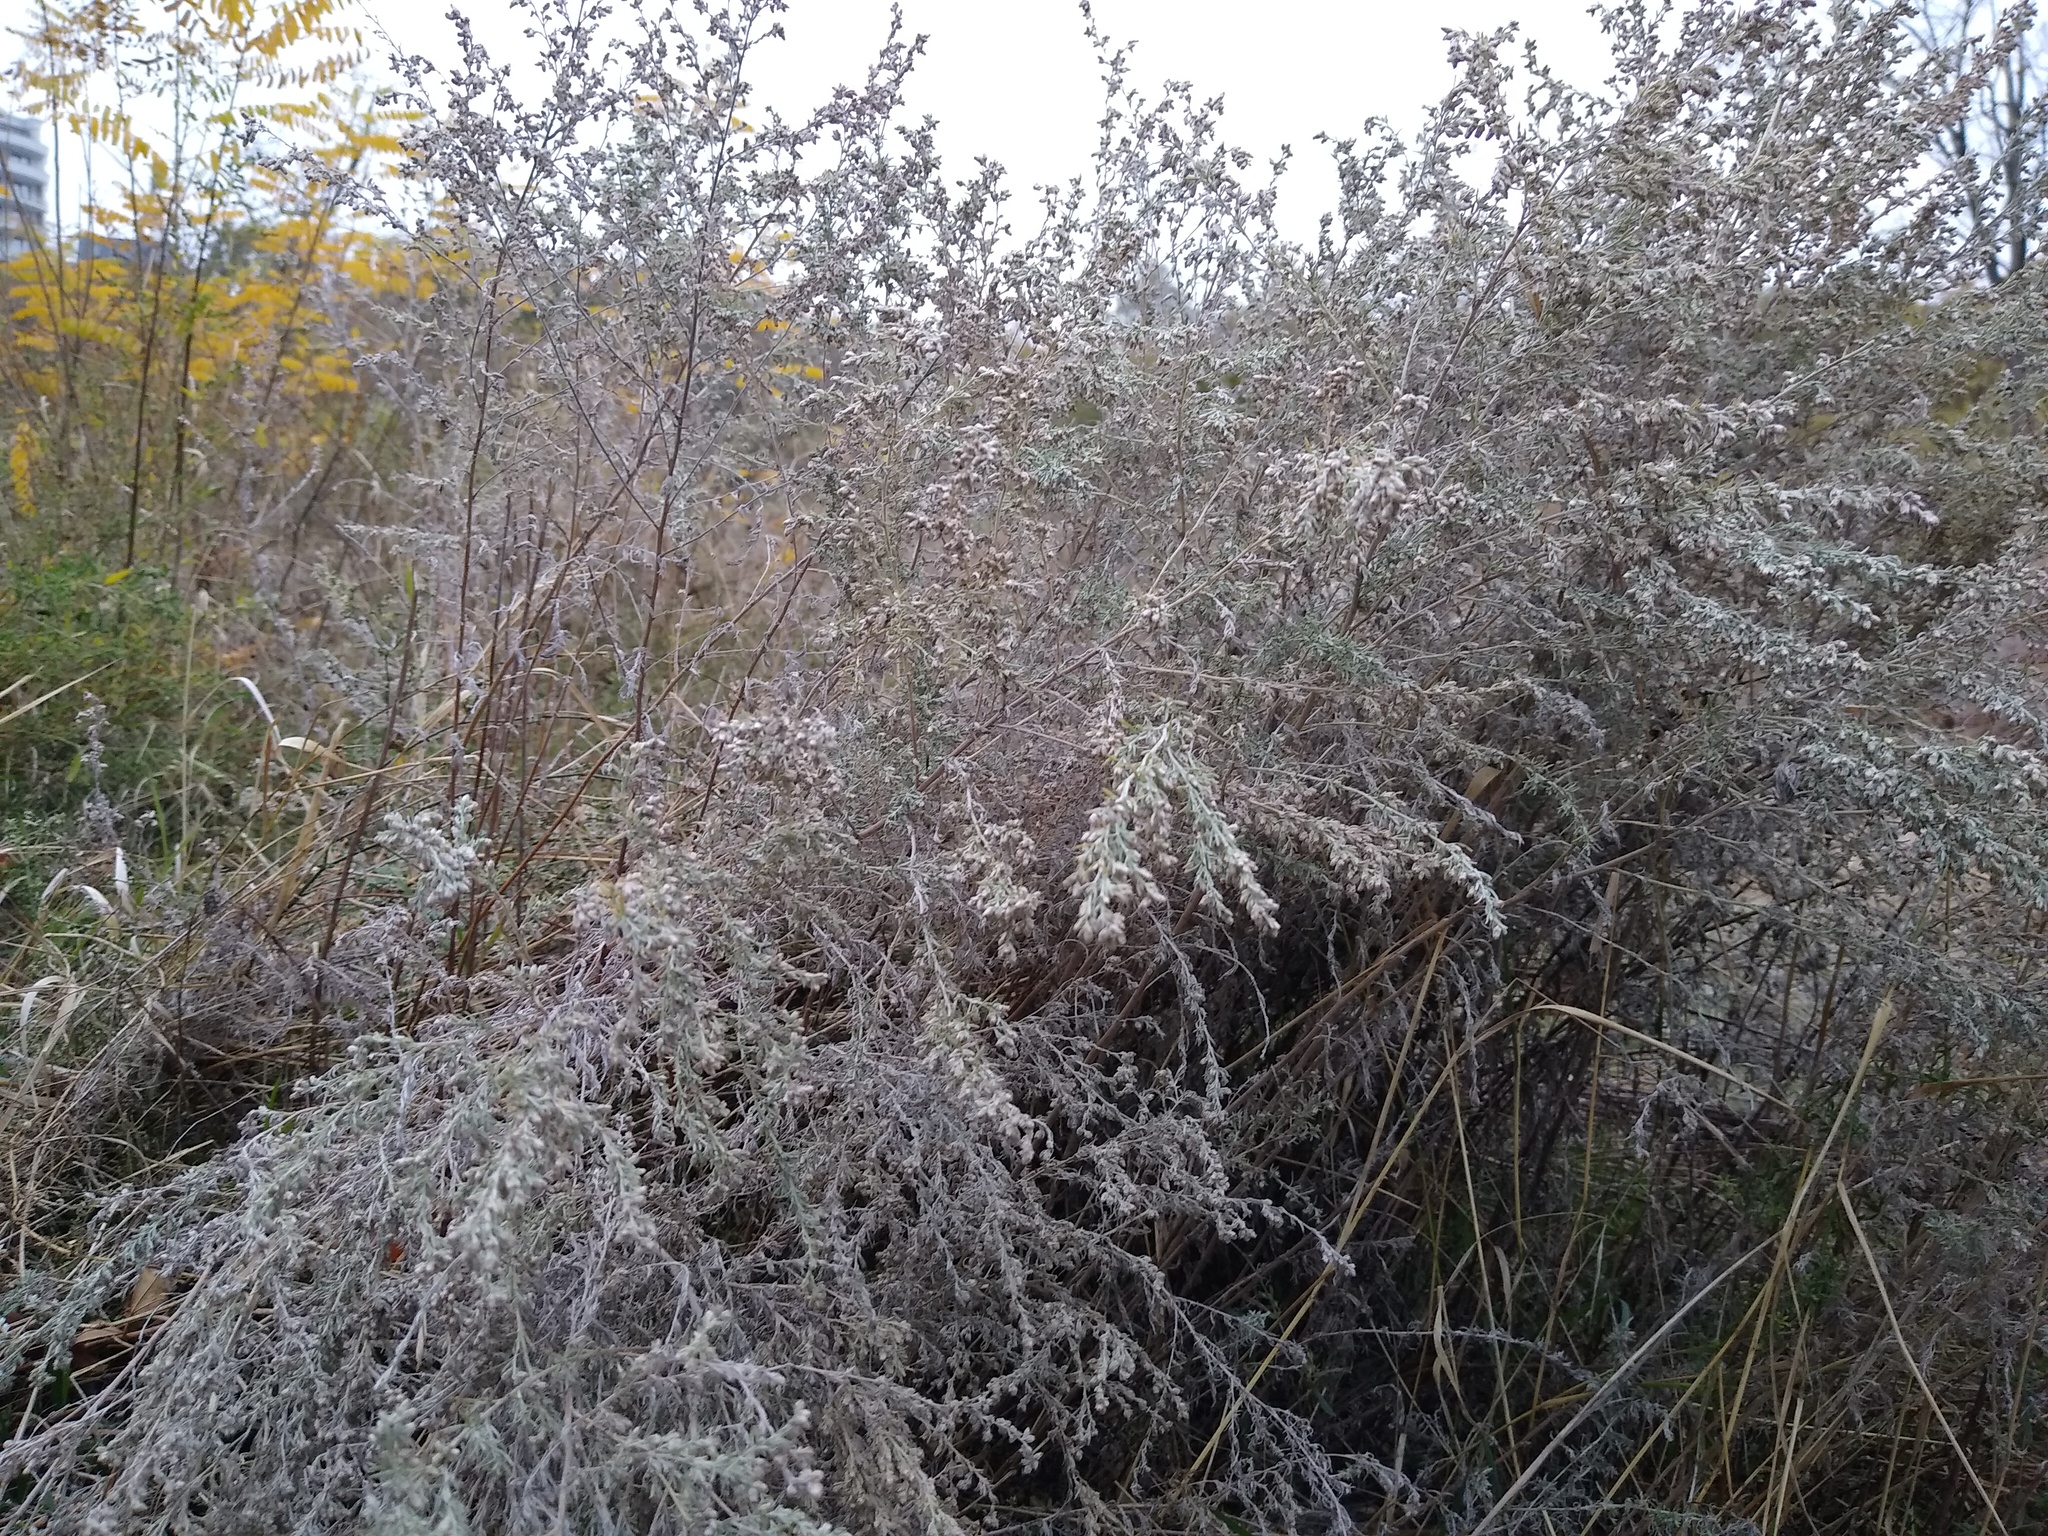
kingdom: Plantae
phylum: Tracheophyta
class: Magnoliopsida
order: Asterales
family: Asteraceae
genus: Artemisia
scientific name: Artemisia austriaca
